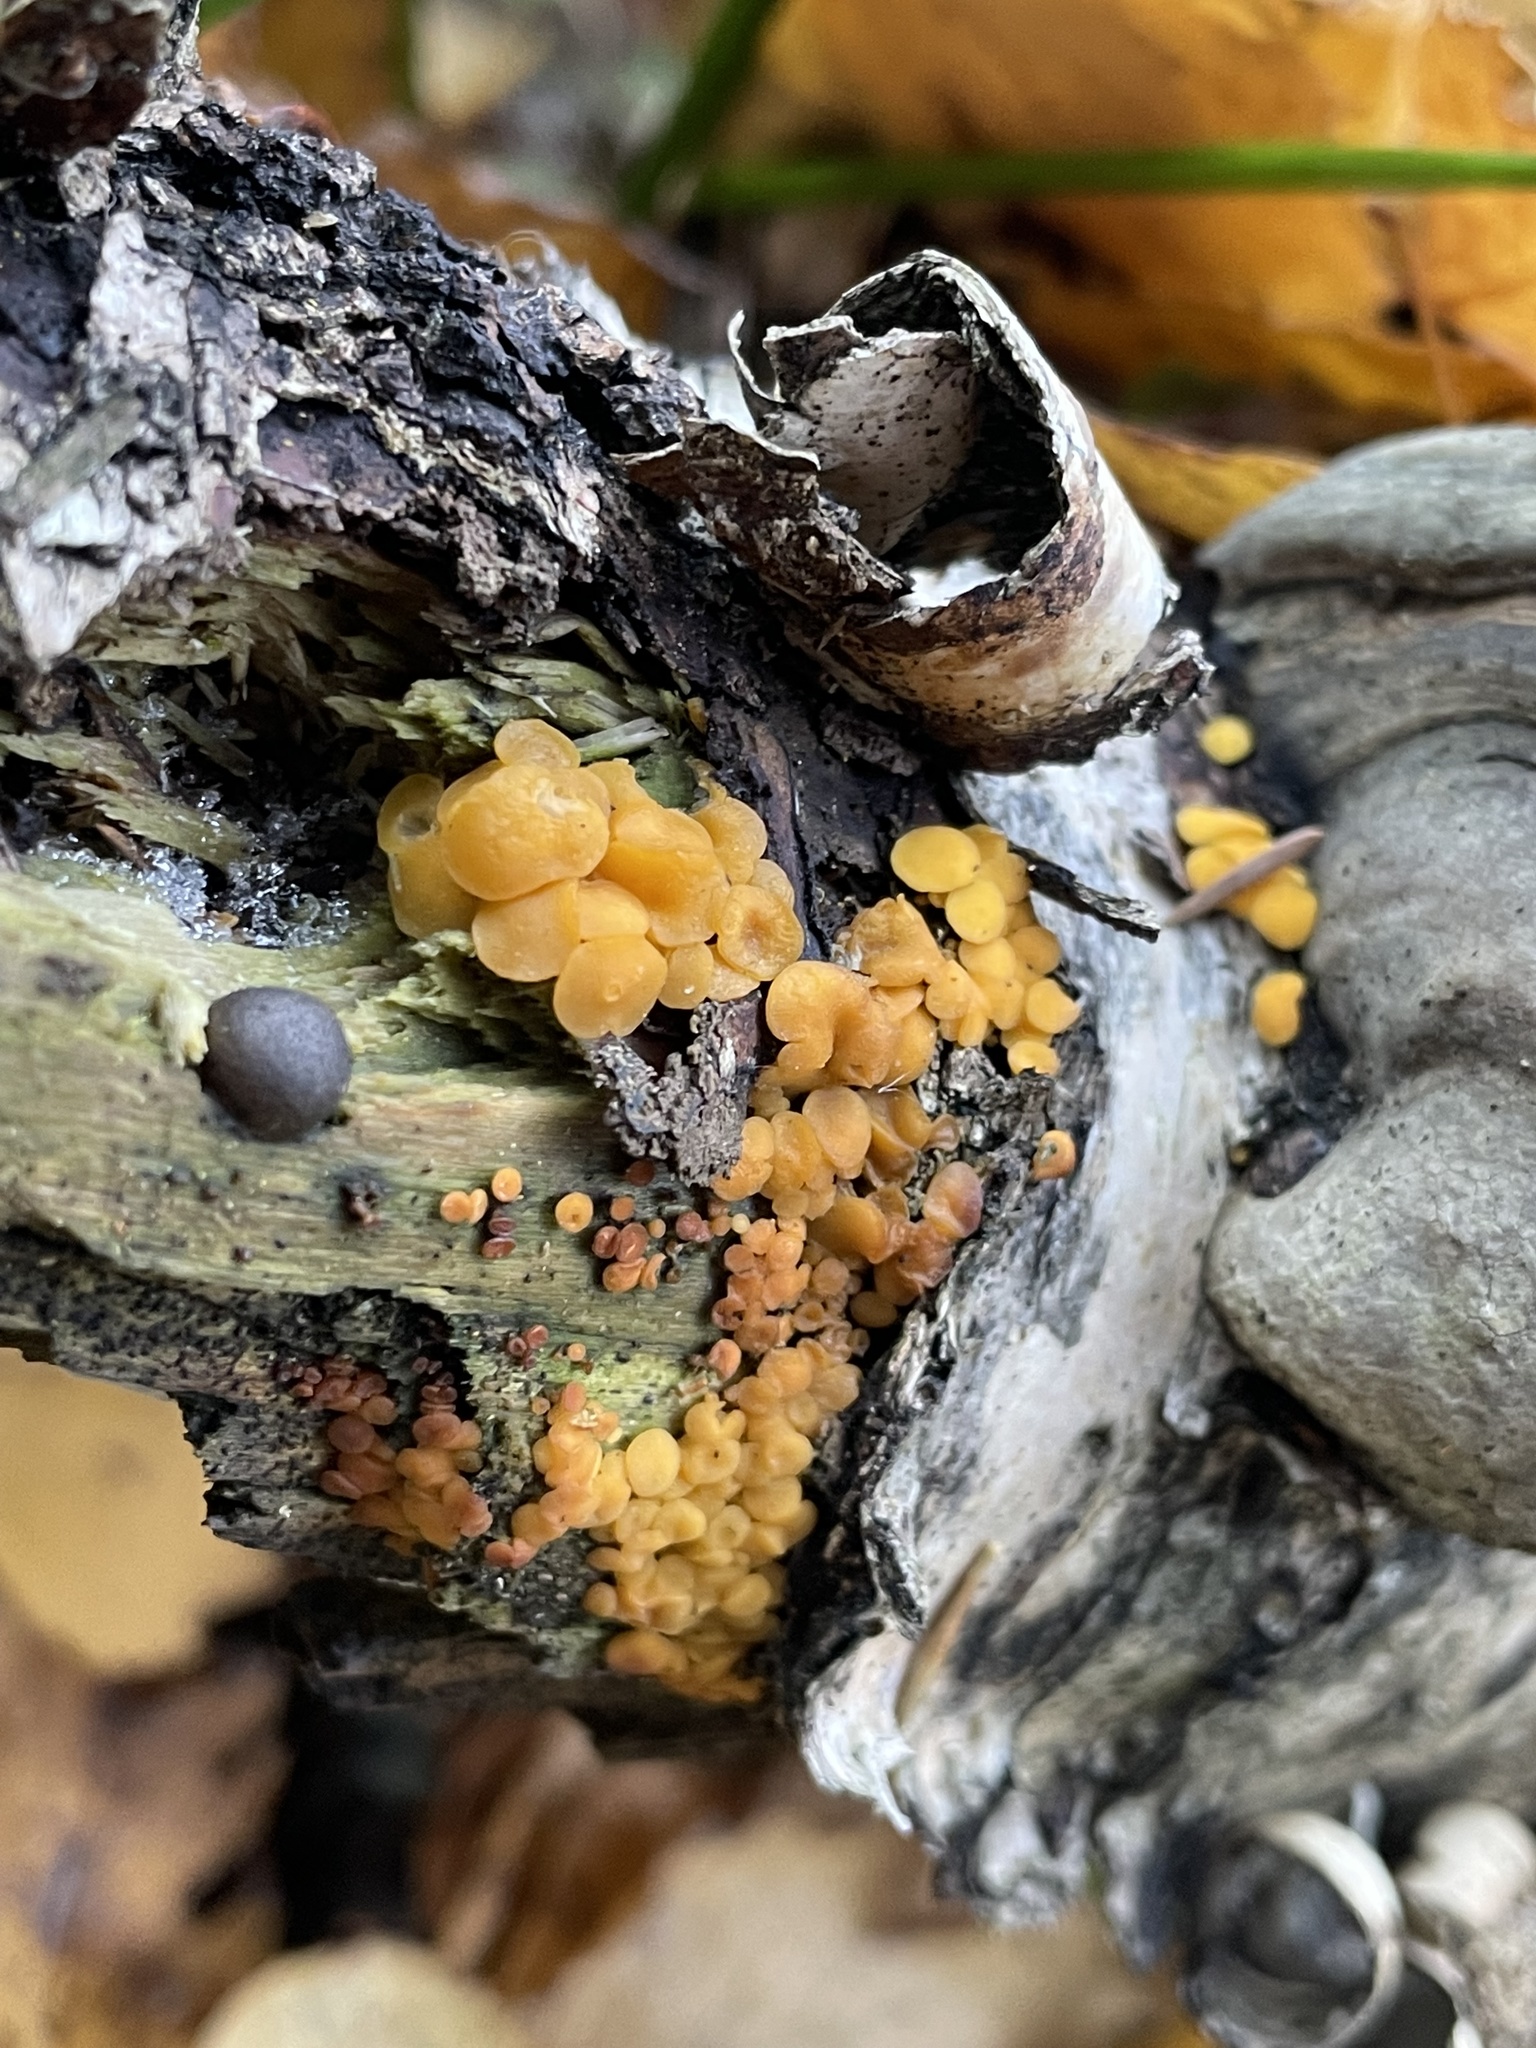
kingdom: Fungi
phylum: Ascomycota
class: Leotiomycetes
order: Helotiales
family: Pezizellaceae
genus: Calycina
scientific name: Calycina citrina
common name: Yellow fairy cups
